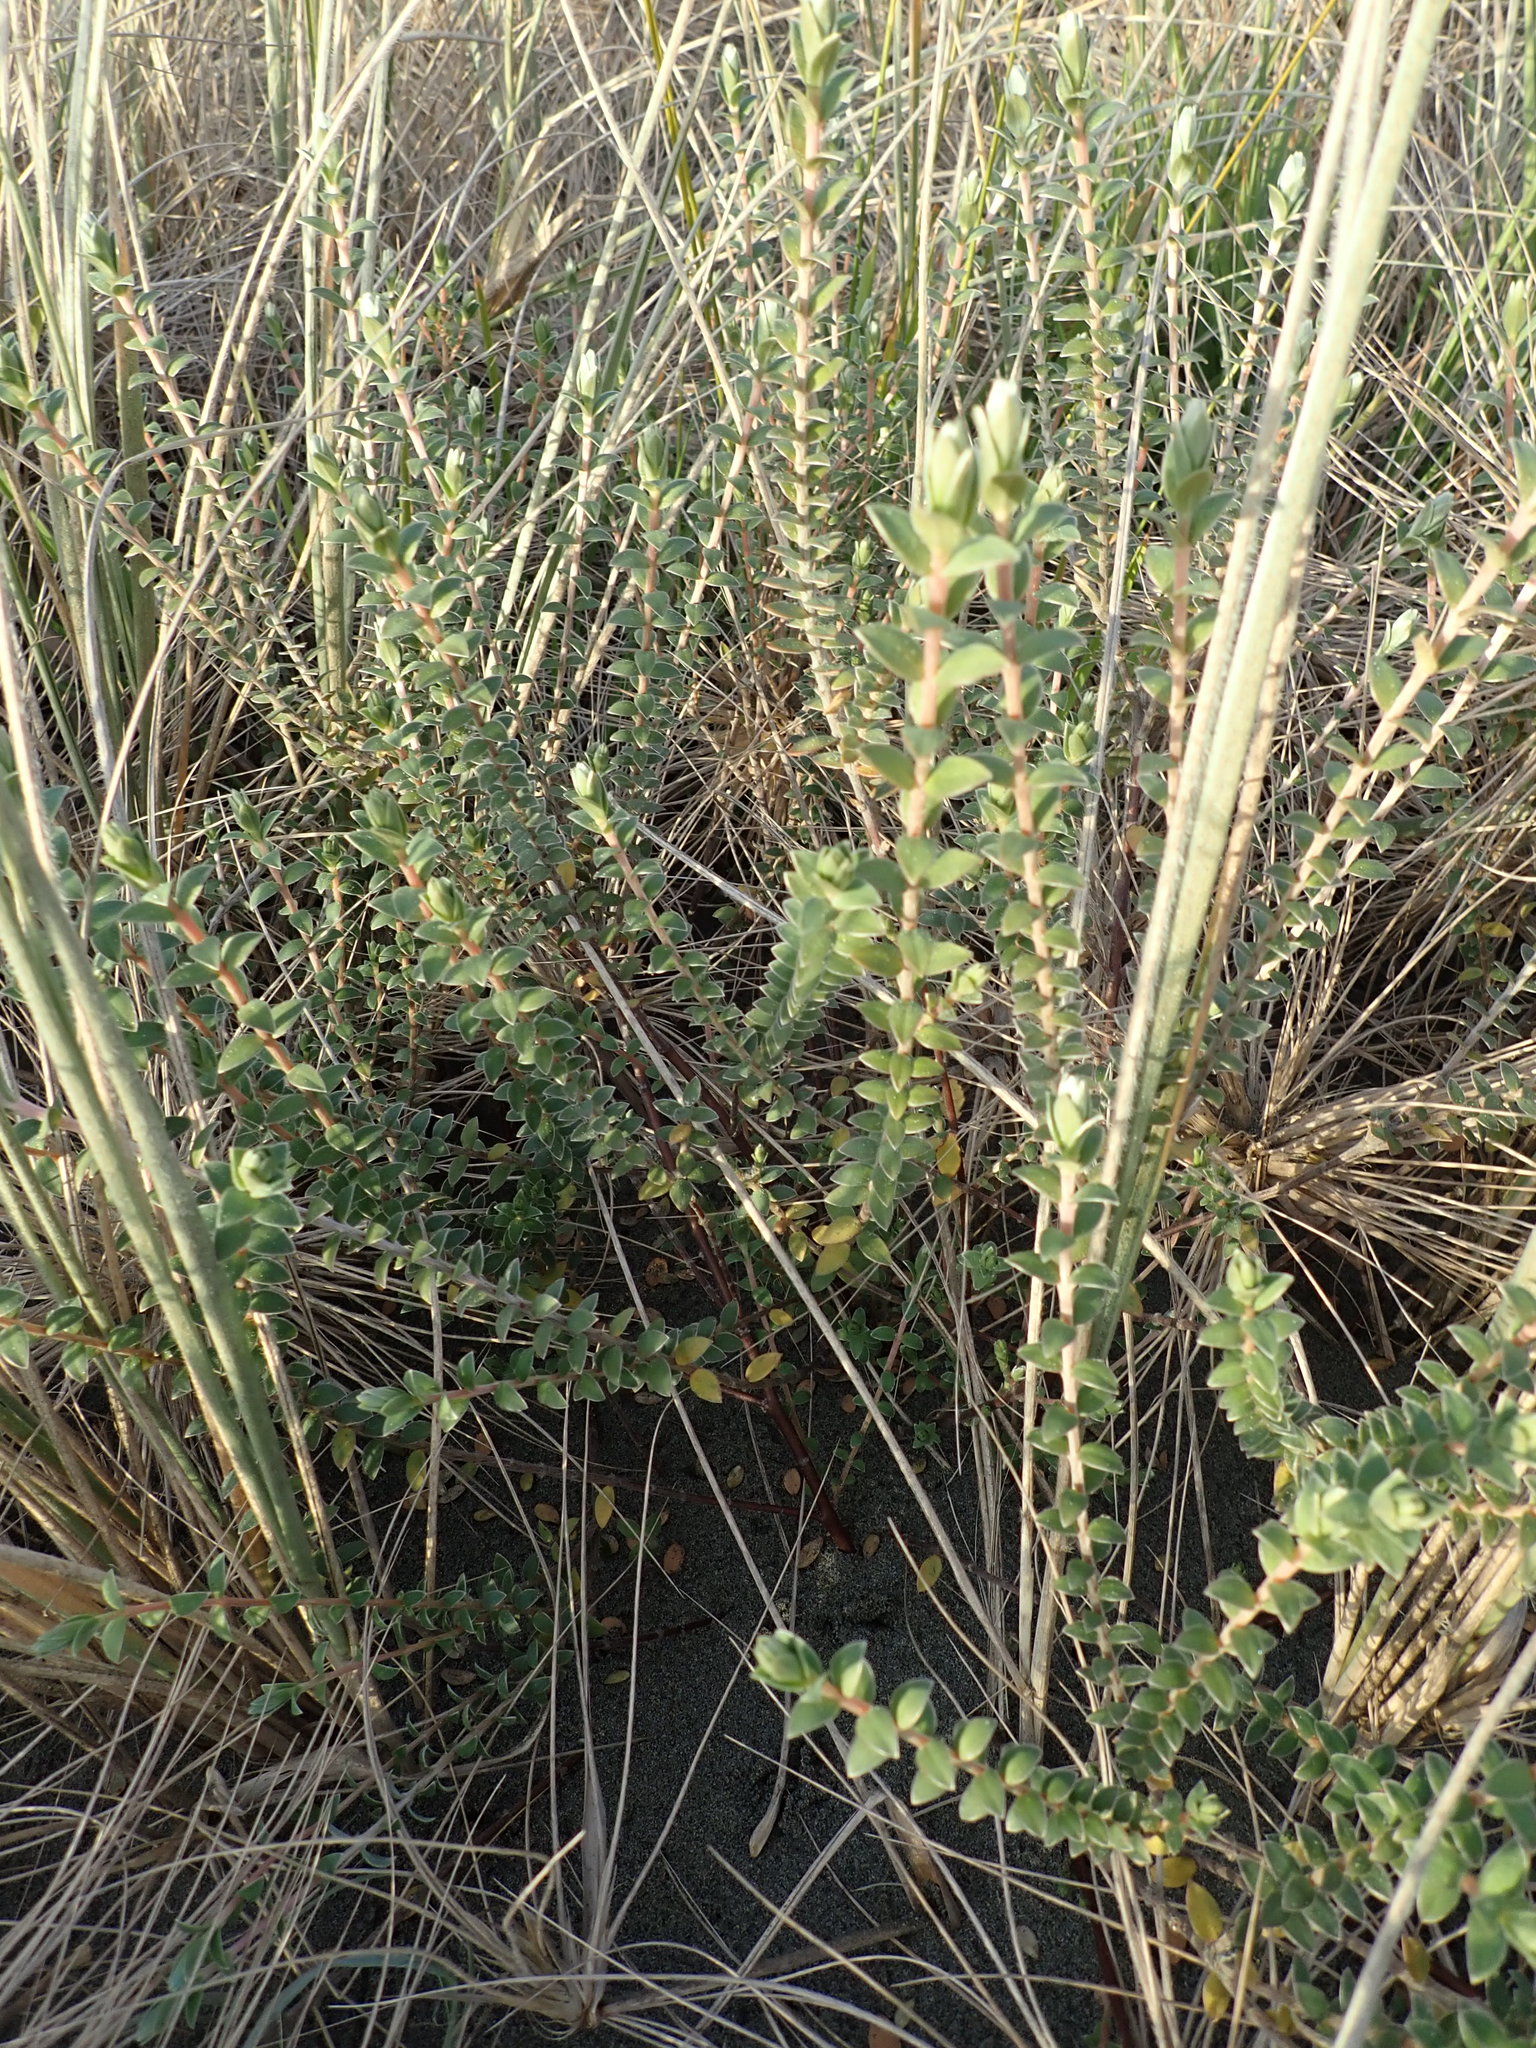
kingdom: Plantae
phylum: Tracheophyta
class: Magnoliopsida
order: Malvales
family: Thymelaeaceae
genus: Pimelea
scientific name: Pimelea villosa
